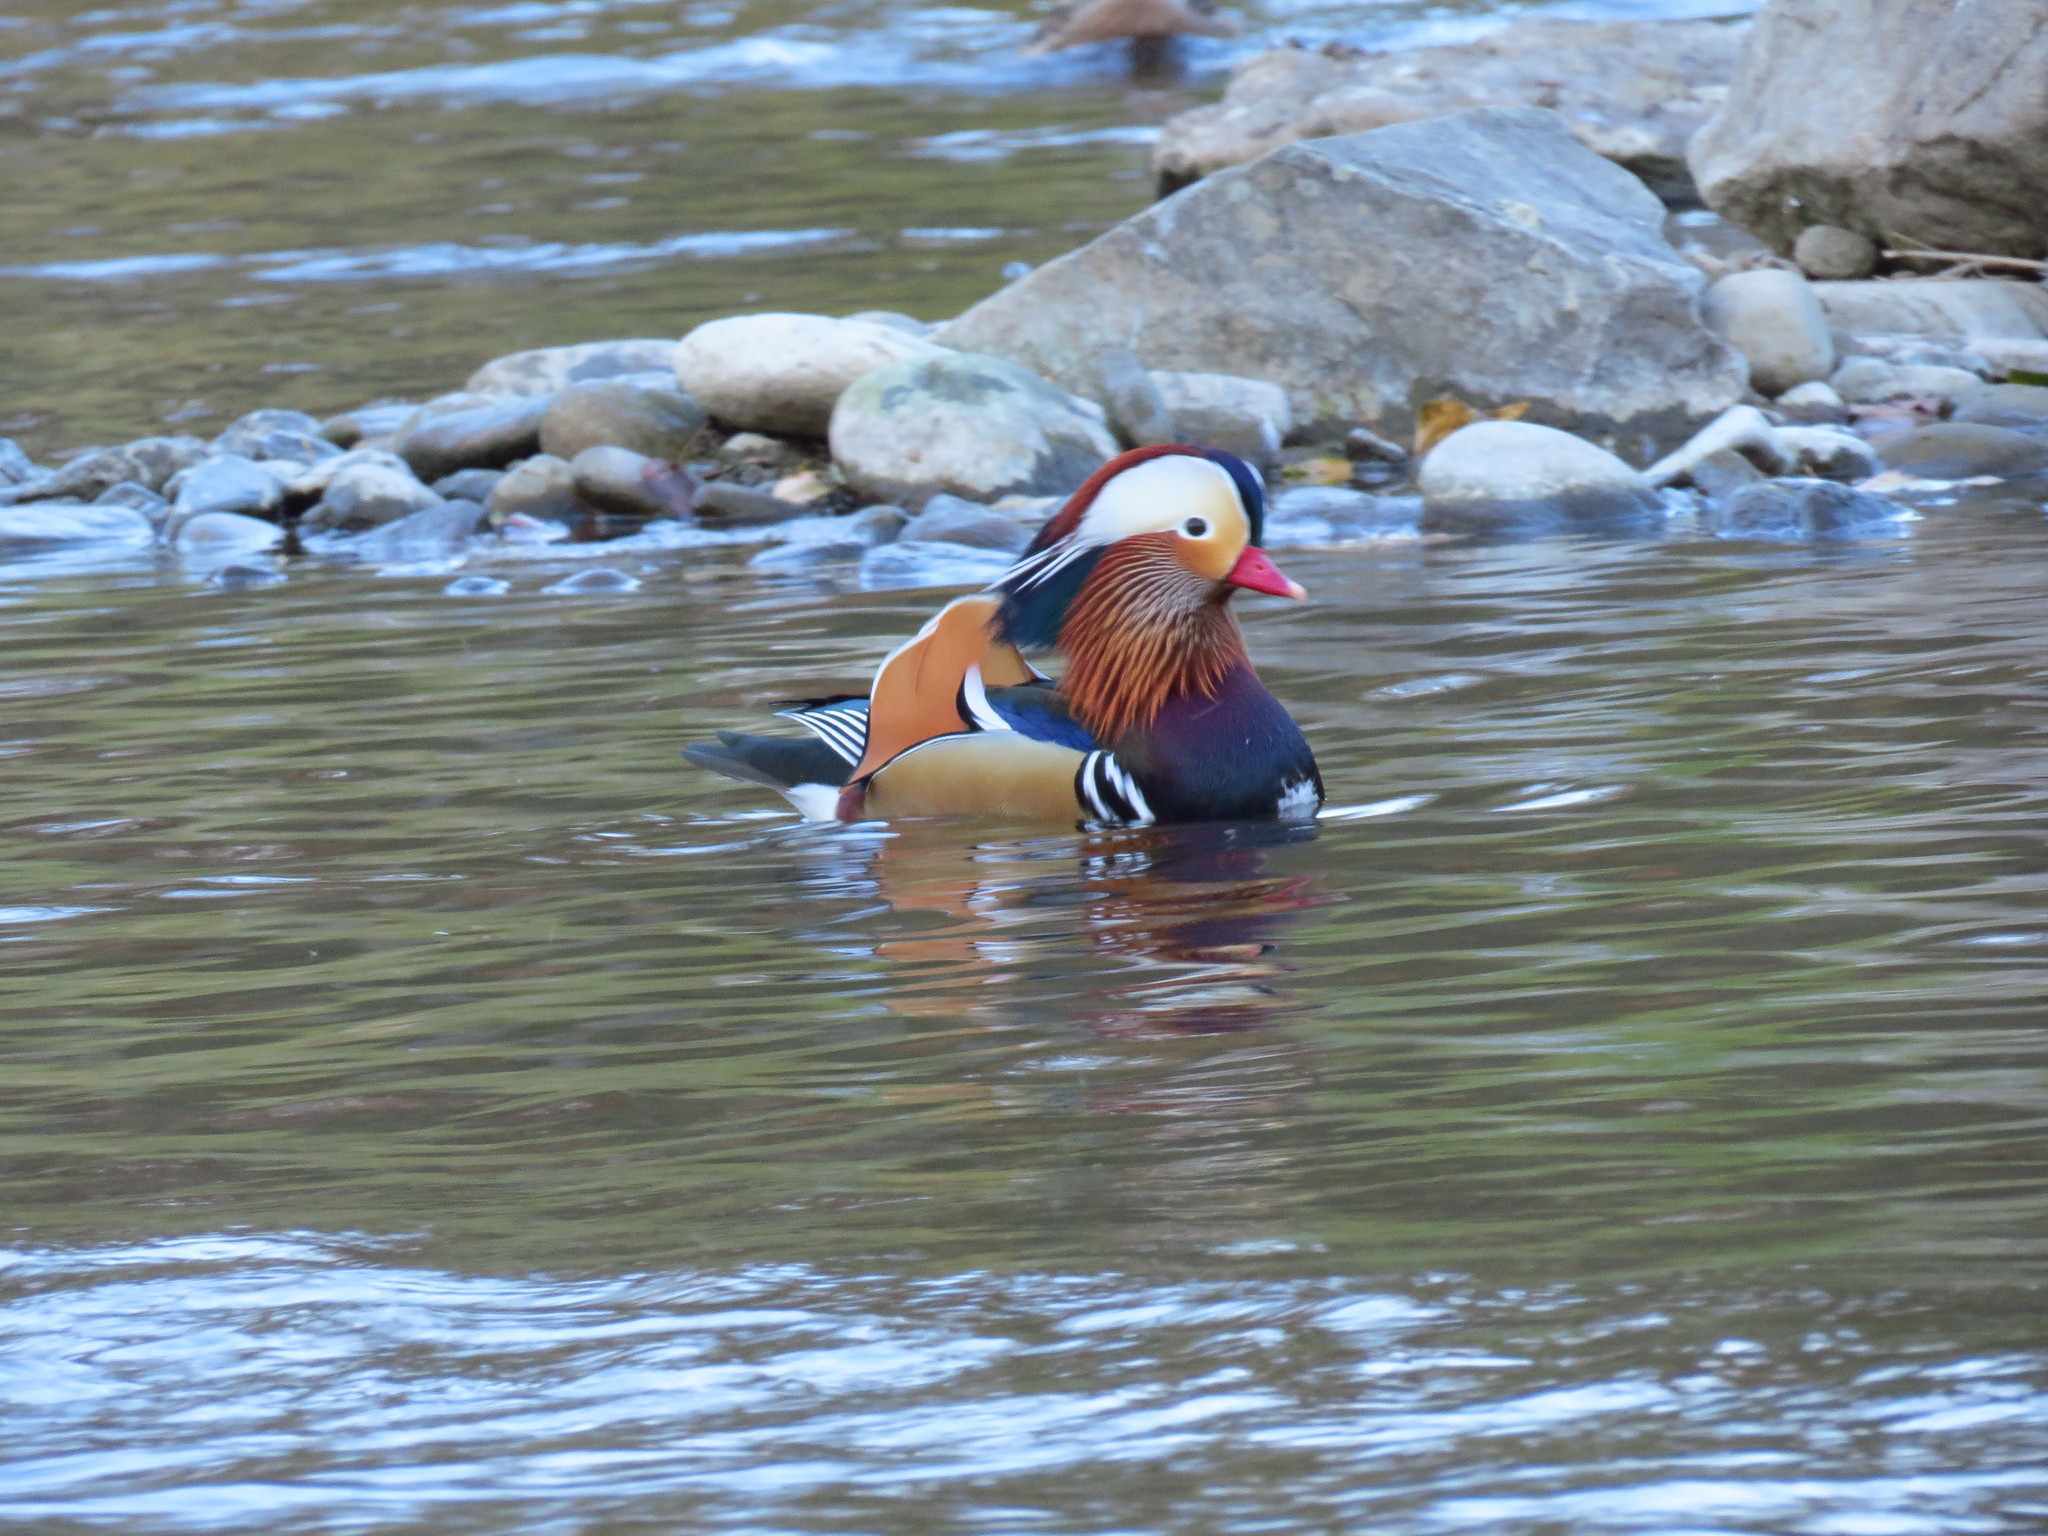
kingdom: Animalia
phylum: Chordata
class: Aves
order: Anseriformes
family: Anatidae
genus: Aix
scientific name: Aix galericulata
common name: Mandarin duck
